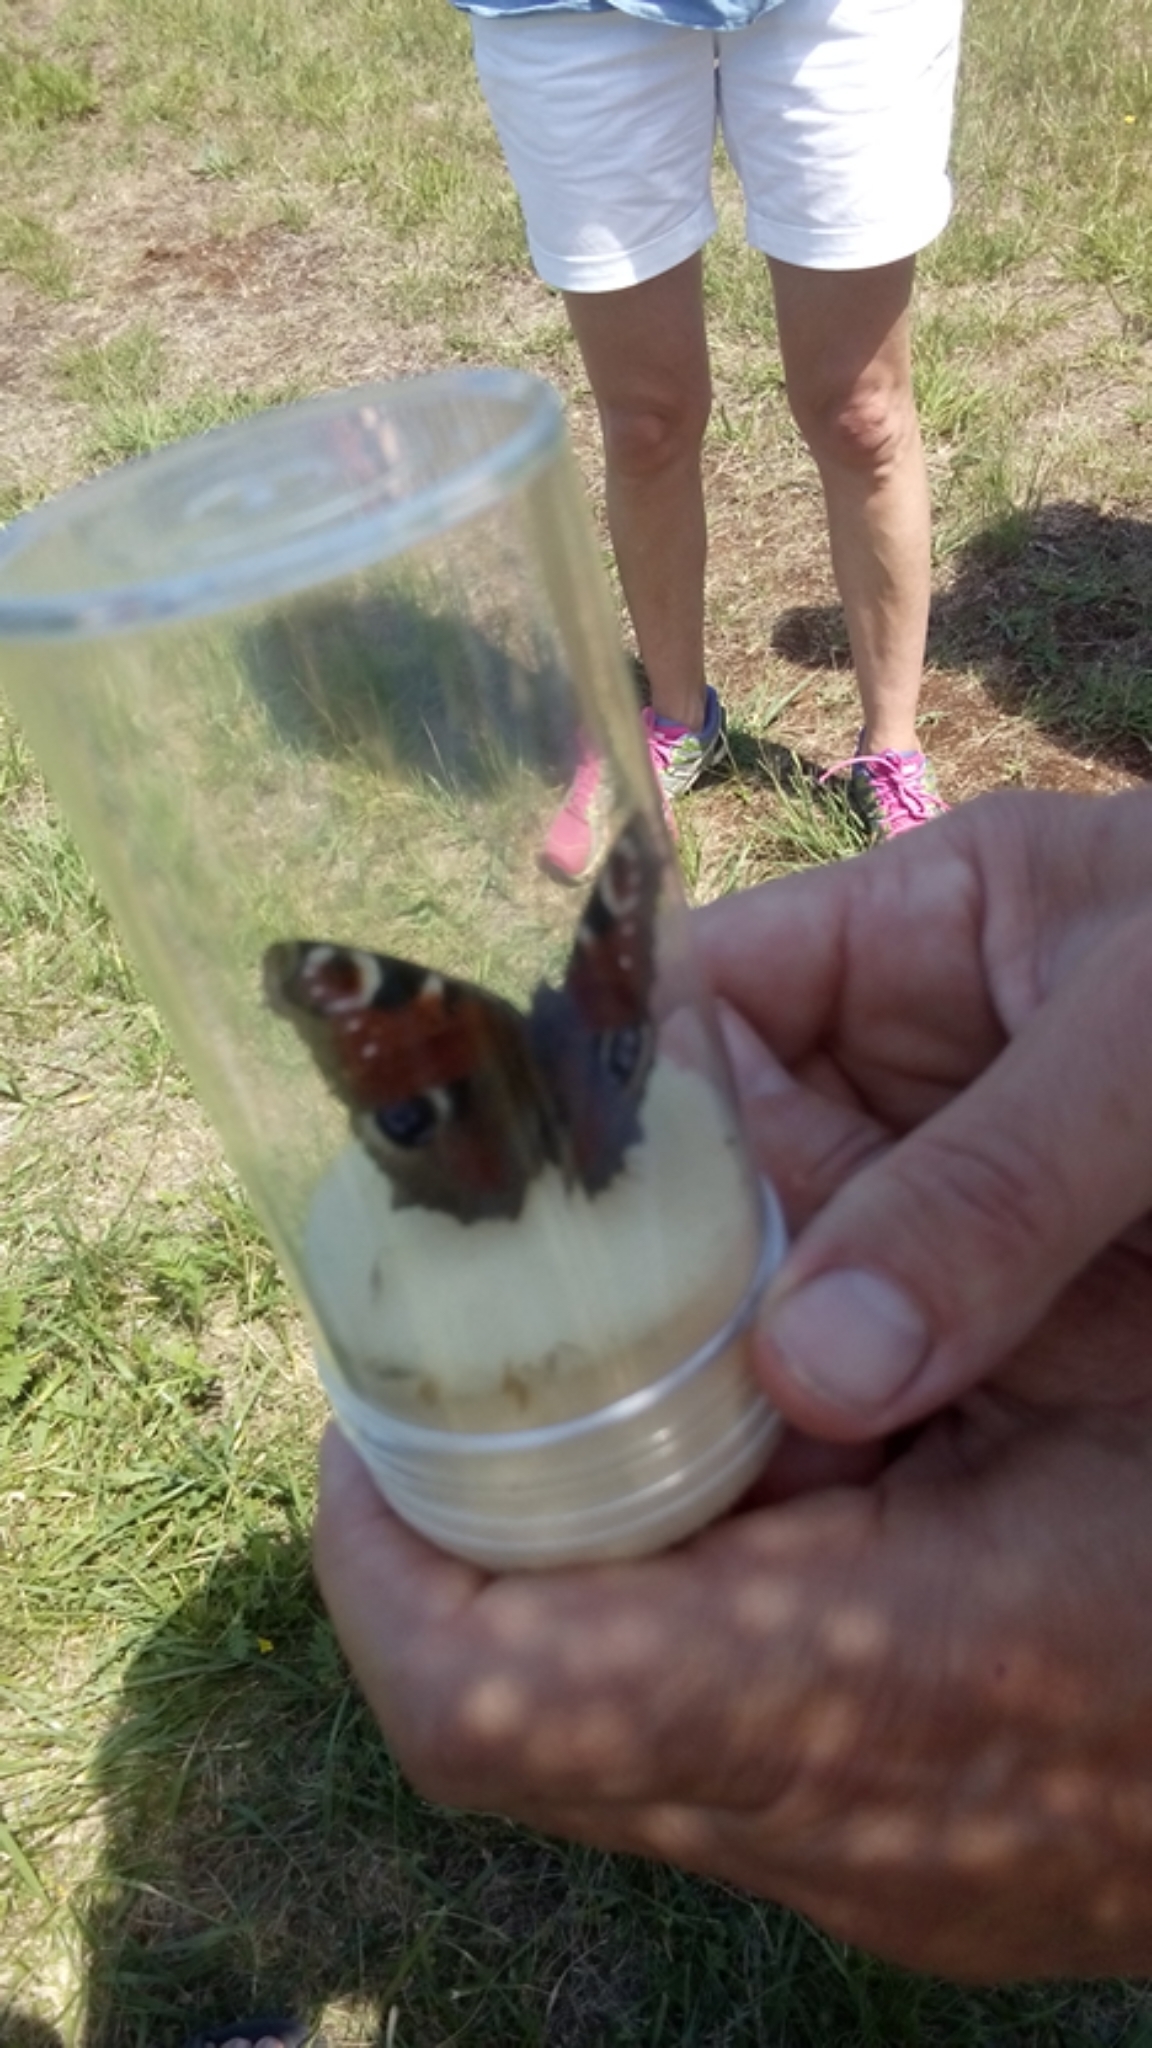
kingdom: Animalia
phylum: Arthropoda
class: Insecta
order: Lepidoptera
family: Nymphalidae
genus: Aglais
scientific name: Aglais io
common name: Peacock
